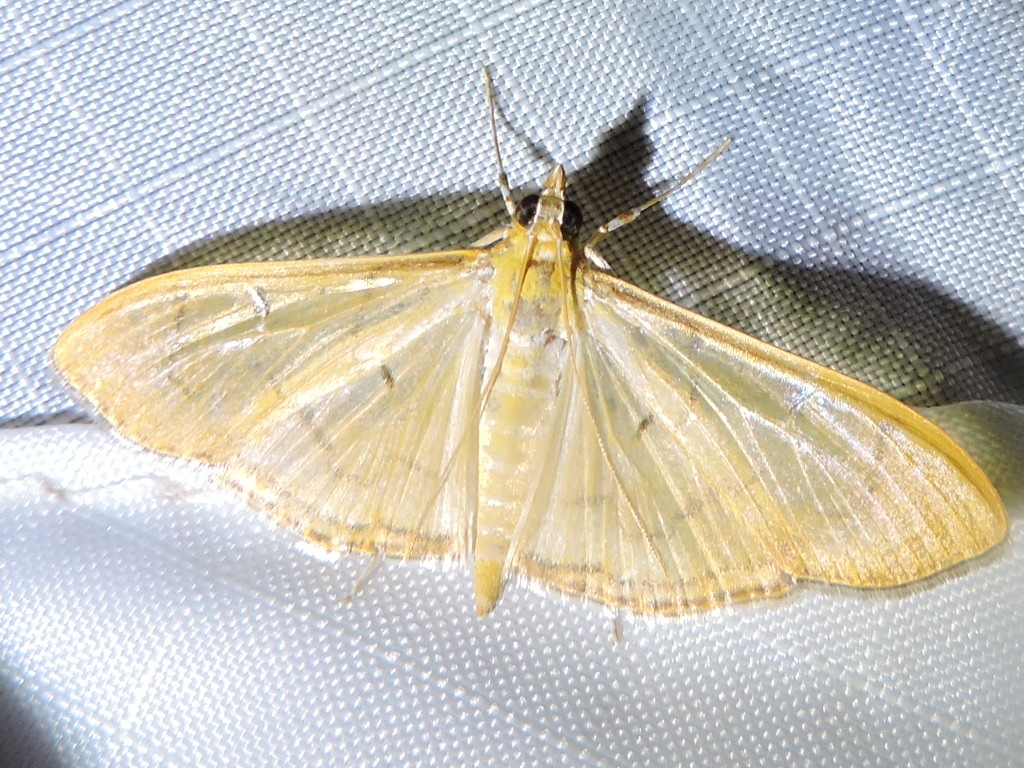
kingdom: Animalia
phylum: Arthropoda
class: Insecta
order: Lepidoptera
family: Crambidae
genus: Condylorrhiza
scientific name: Condylorrhiza vestigialis
